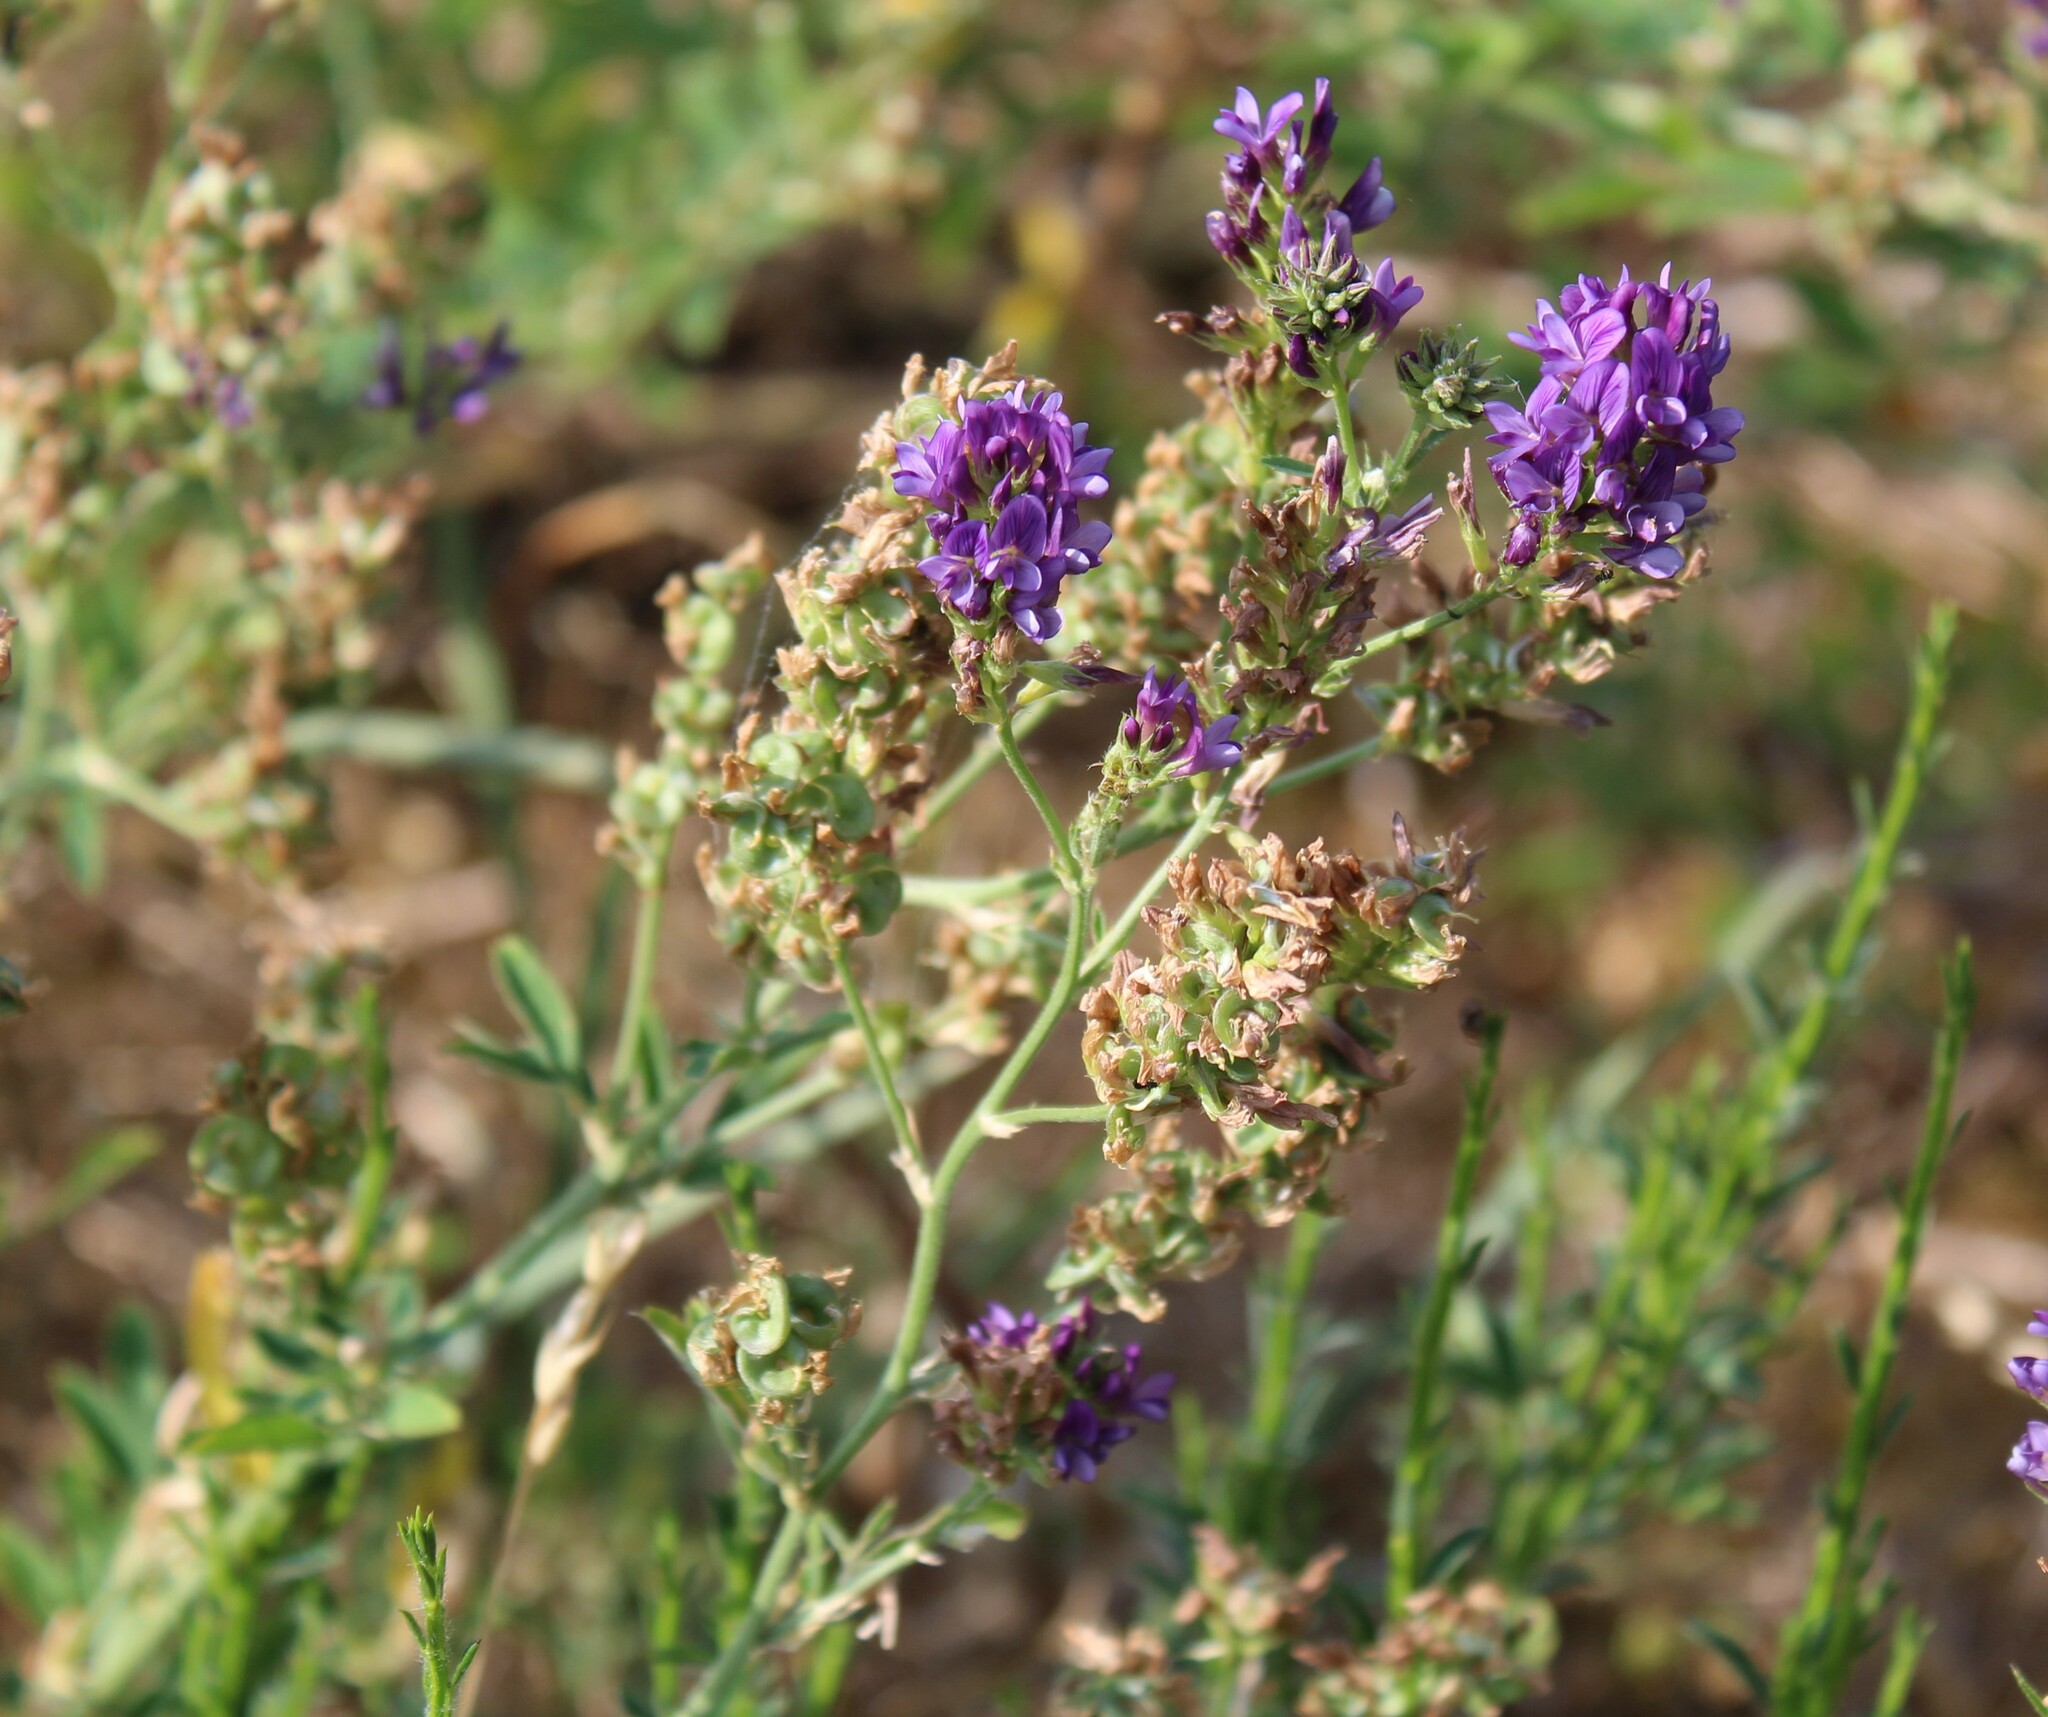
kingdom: Plantae
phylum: Tracheophyta
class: Magnoliopsida
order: Fabales
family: Fabaceae
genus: Medicago
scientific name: Medicago sativa
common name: Alfalfa
